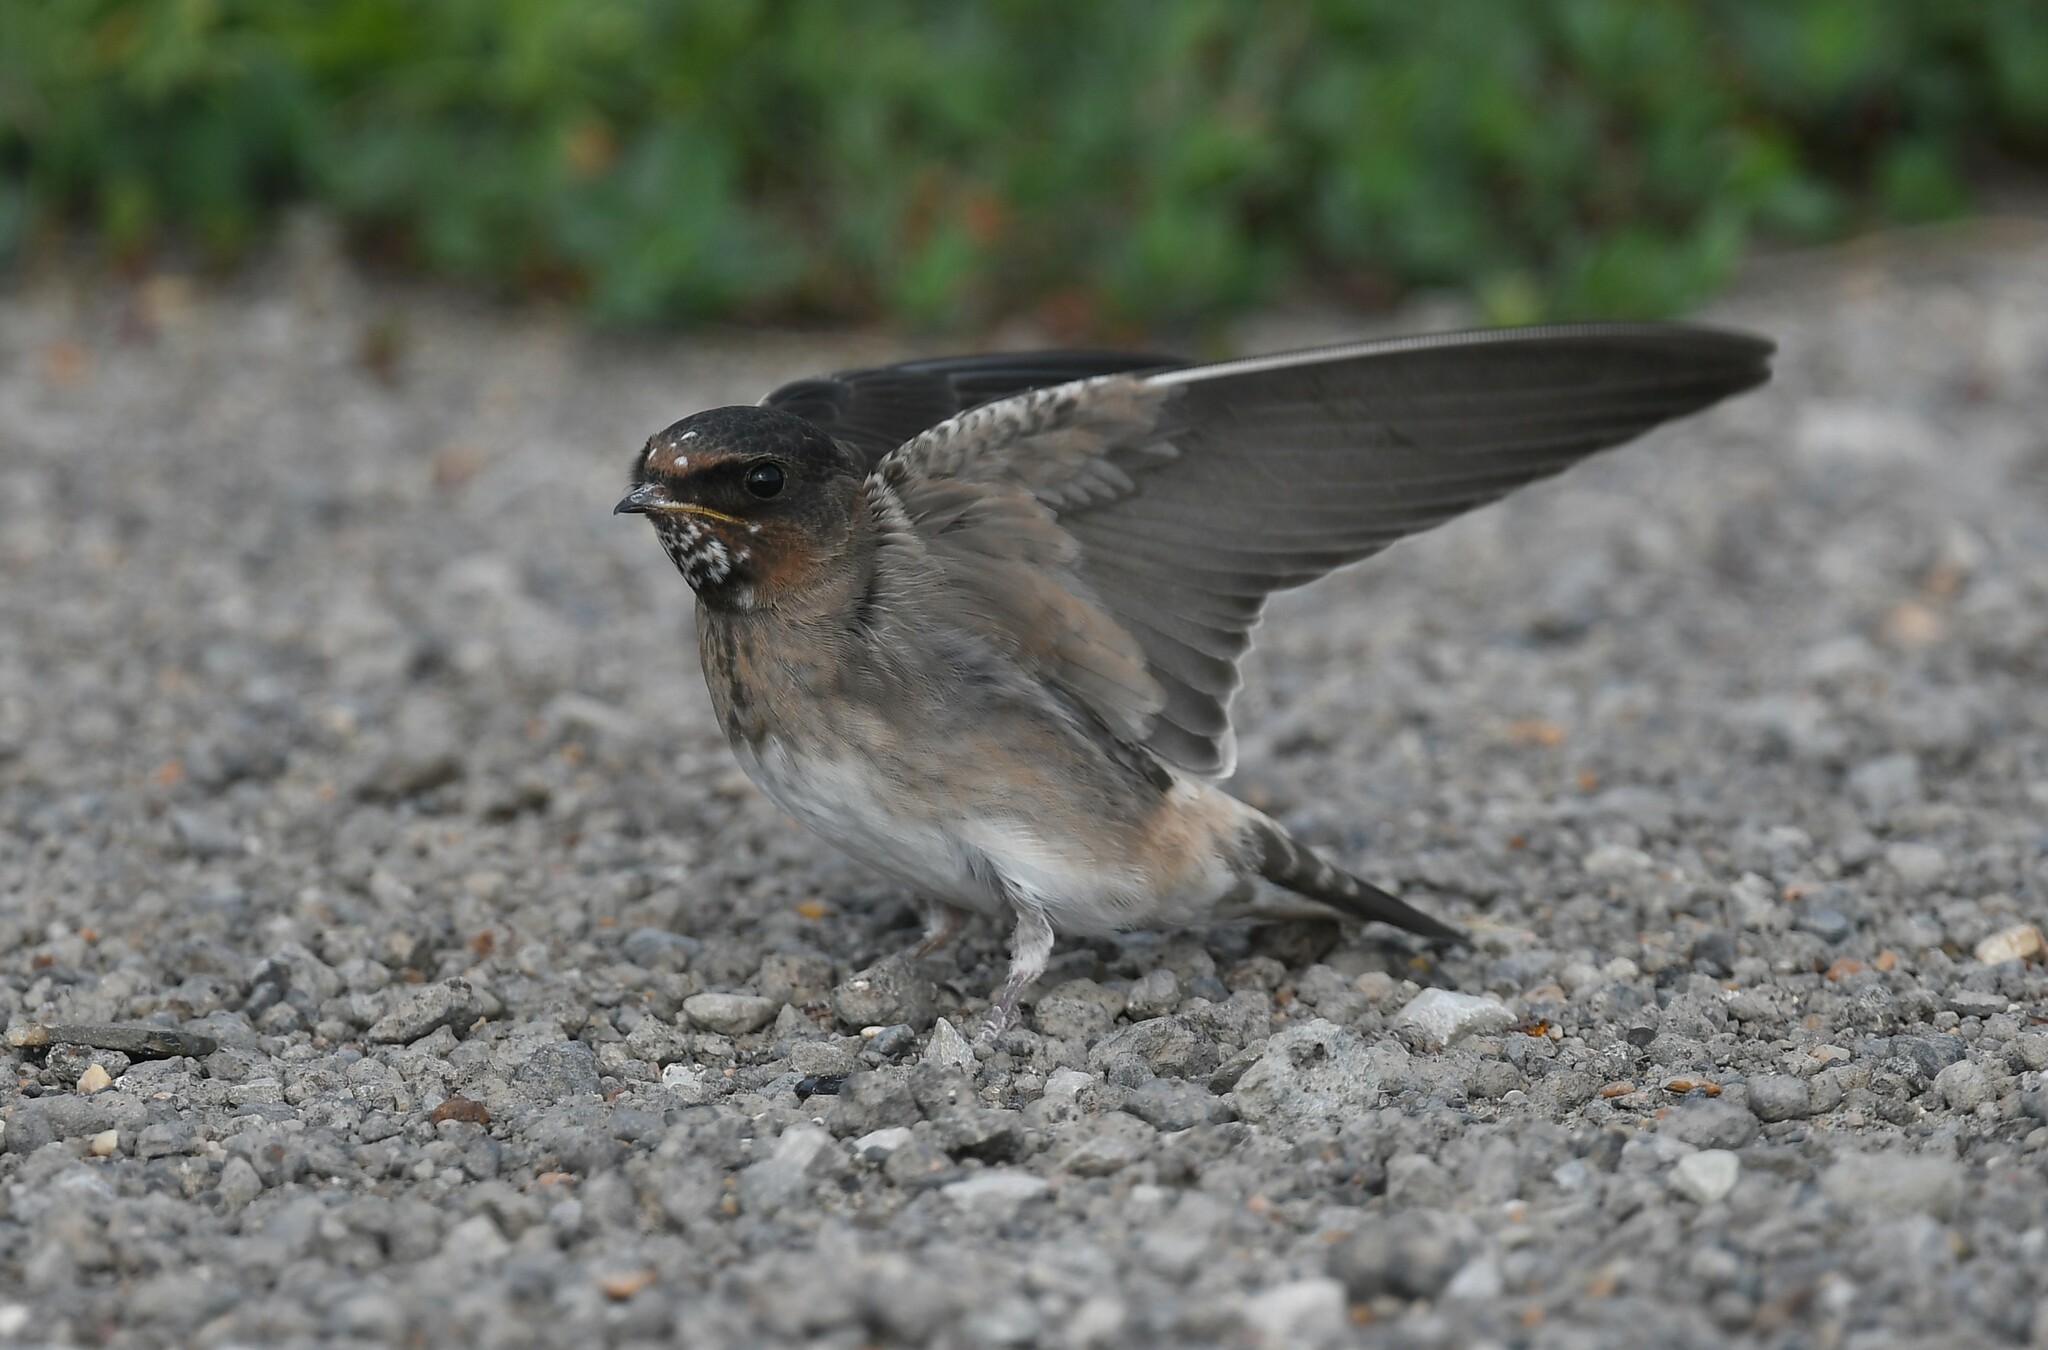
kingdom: Animalia
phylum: Chordata
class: Aves
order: Passeriformes
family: Hirundinidae
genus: Petrochelidon
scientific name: Petrochelidon pyrrhonota
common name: American cliff swallow
